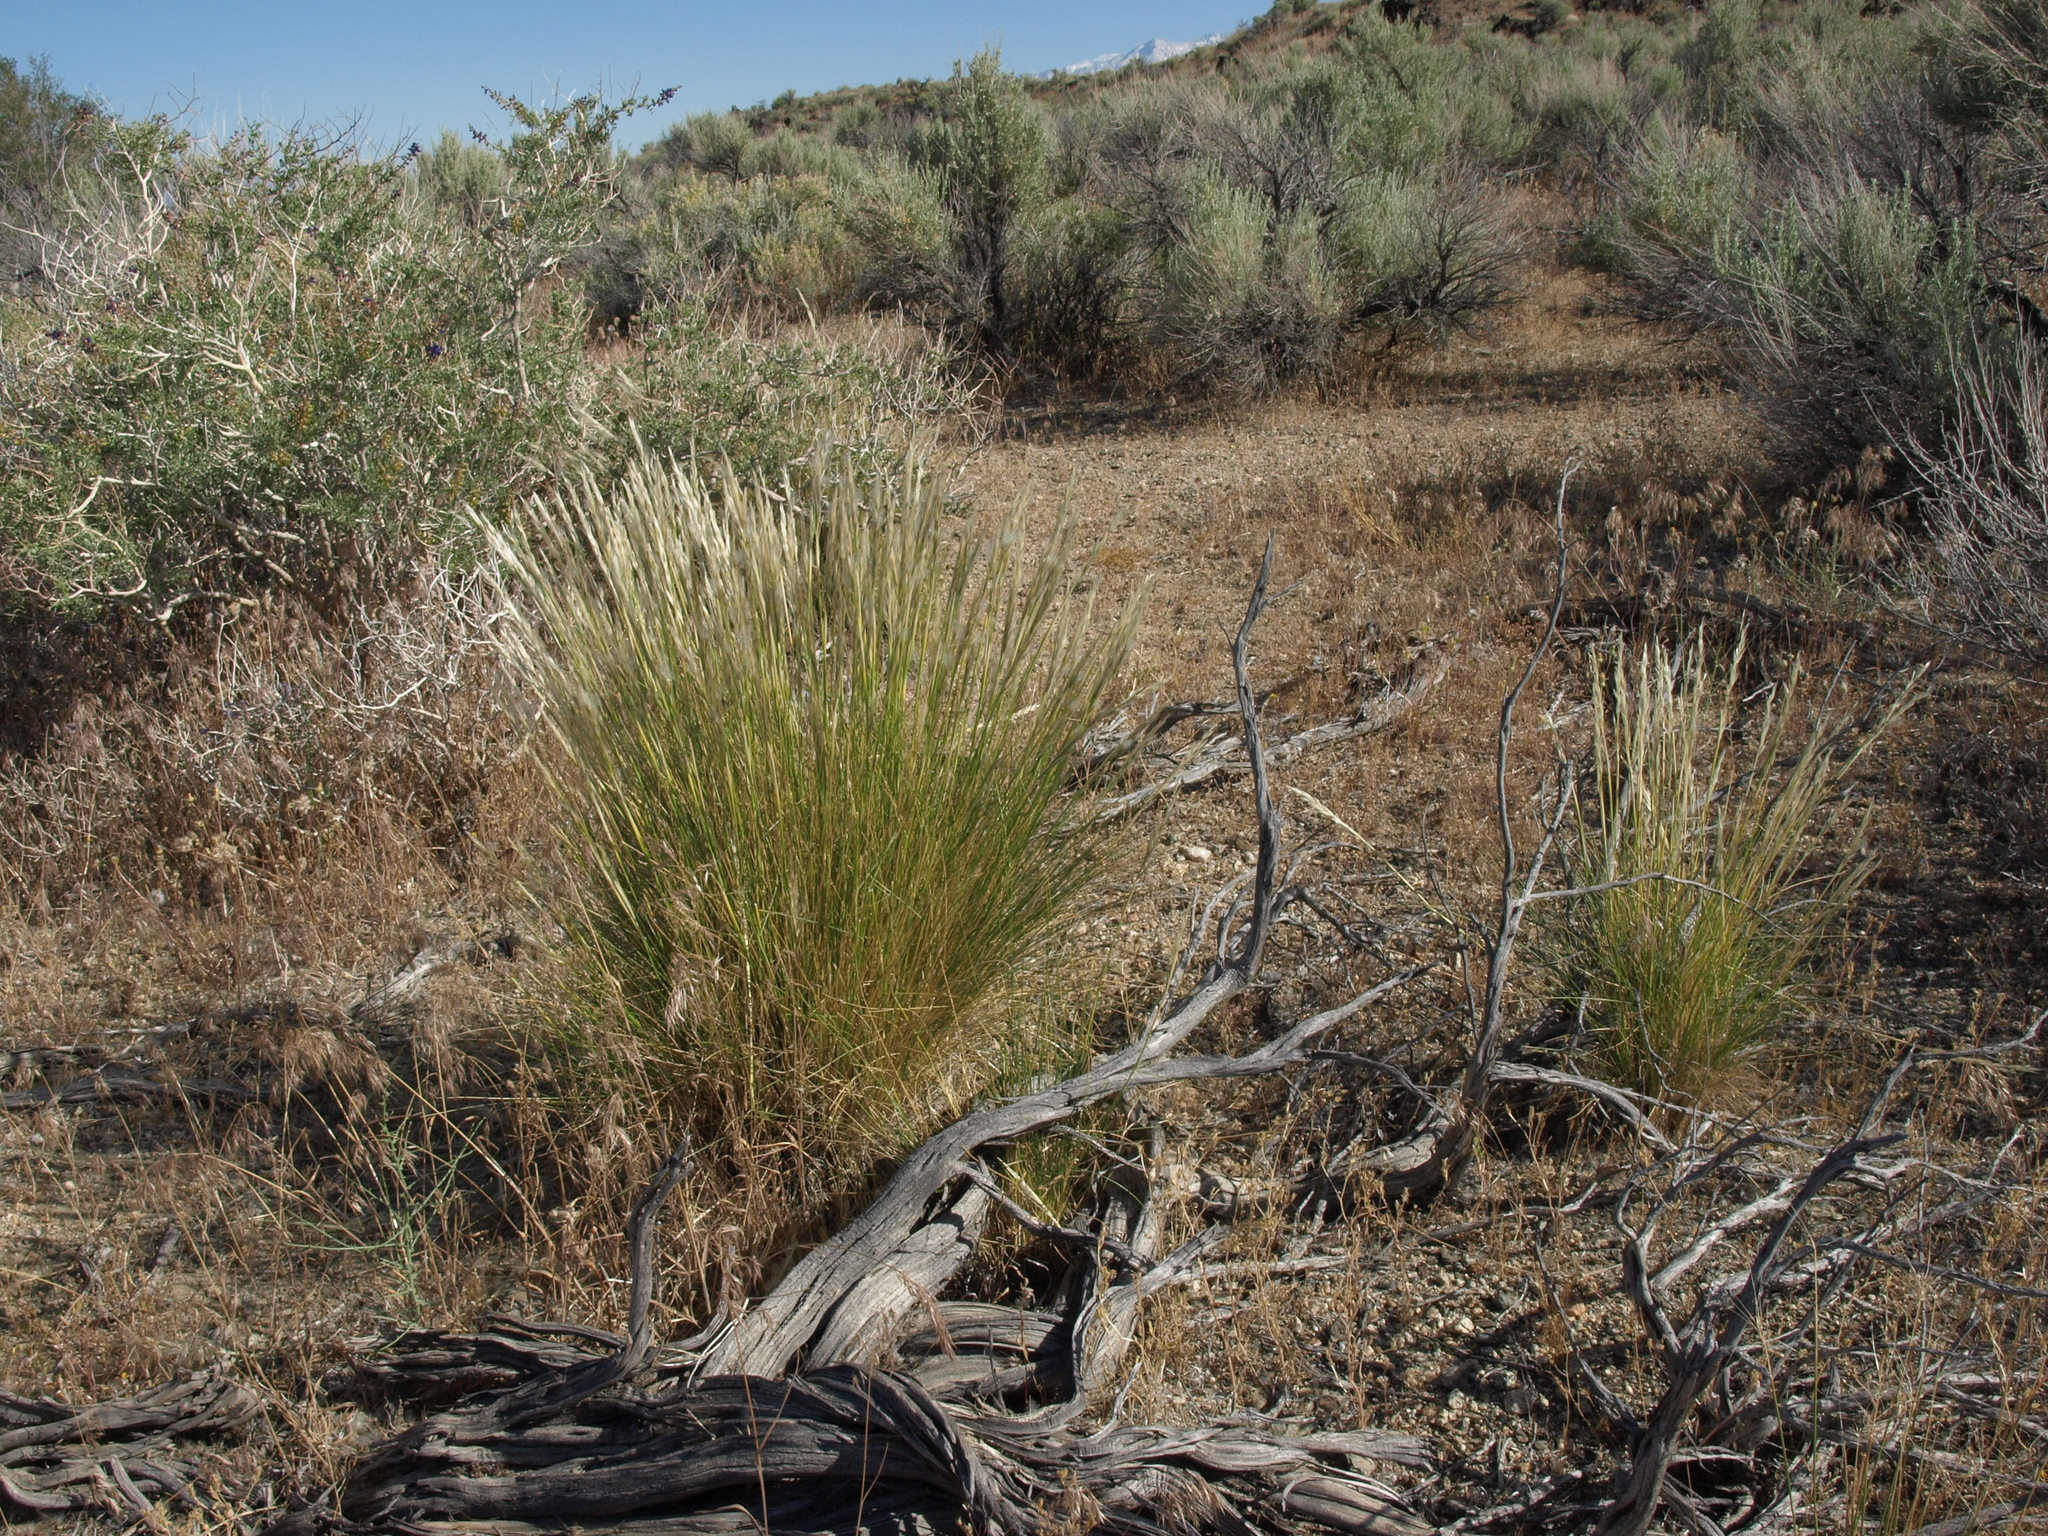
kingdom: Plantae
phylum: Tracheophyta
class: Liliopsida
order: Poales
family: Poaceae
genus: Pappostipa
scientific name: Pappostipa speciosa
